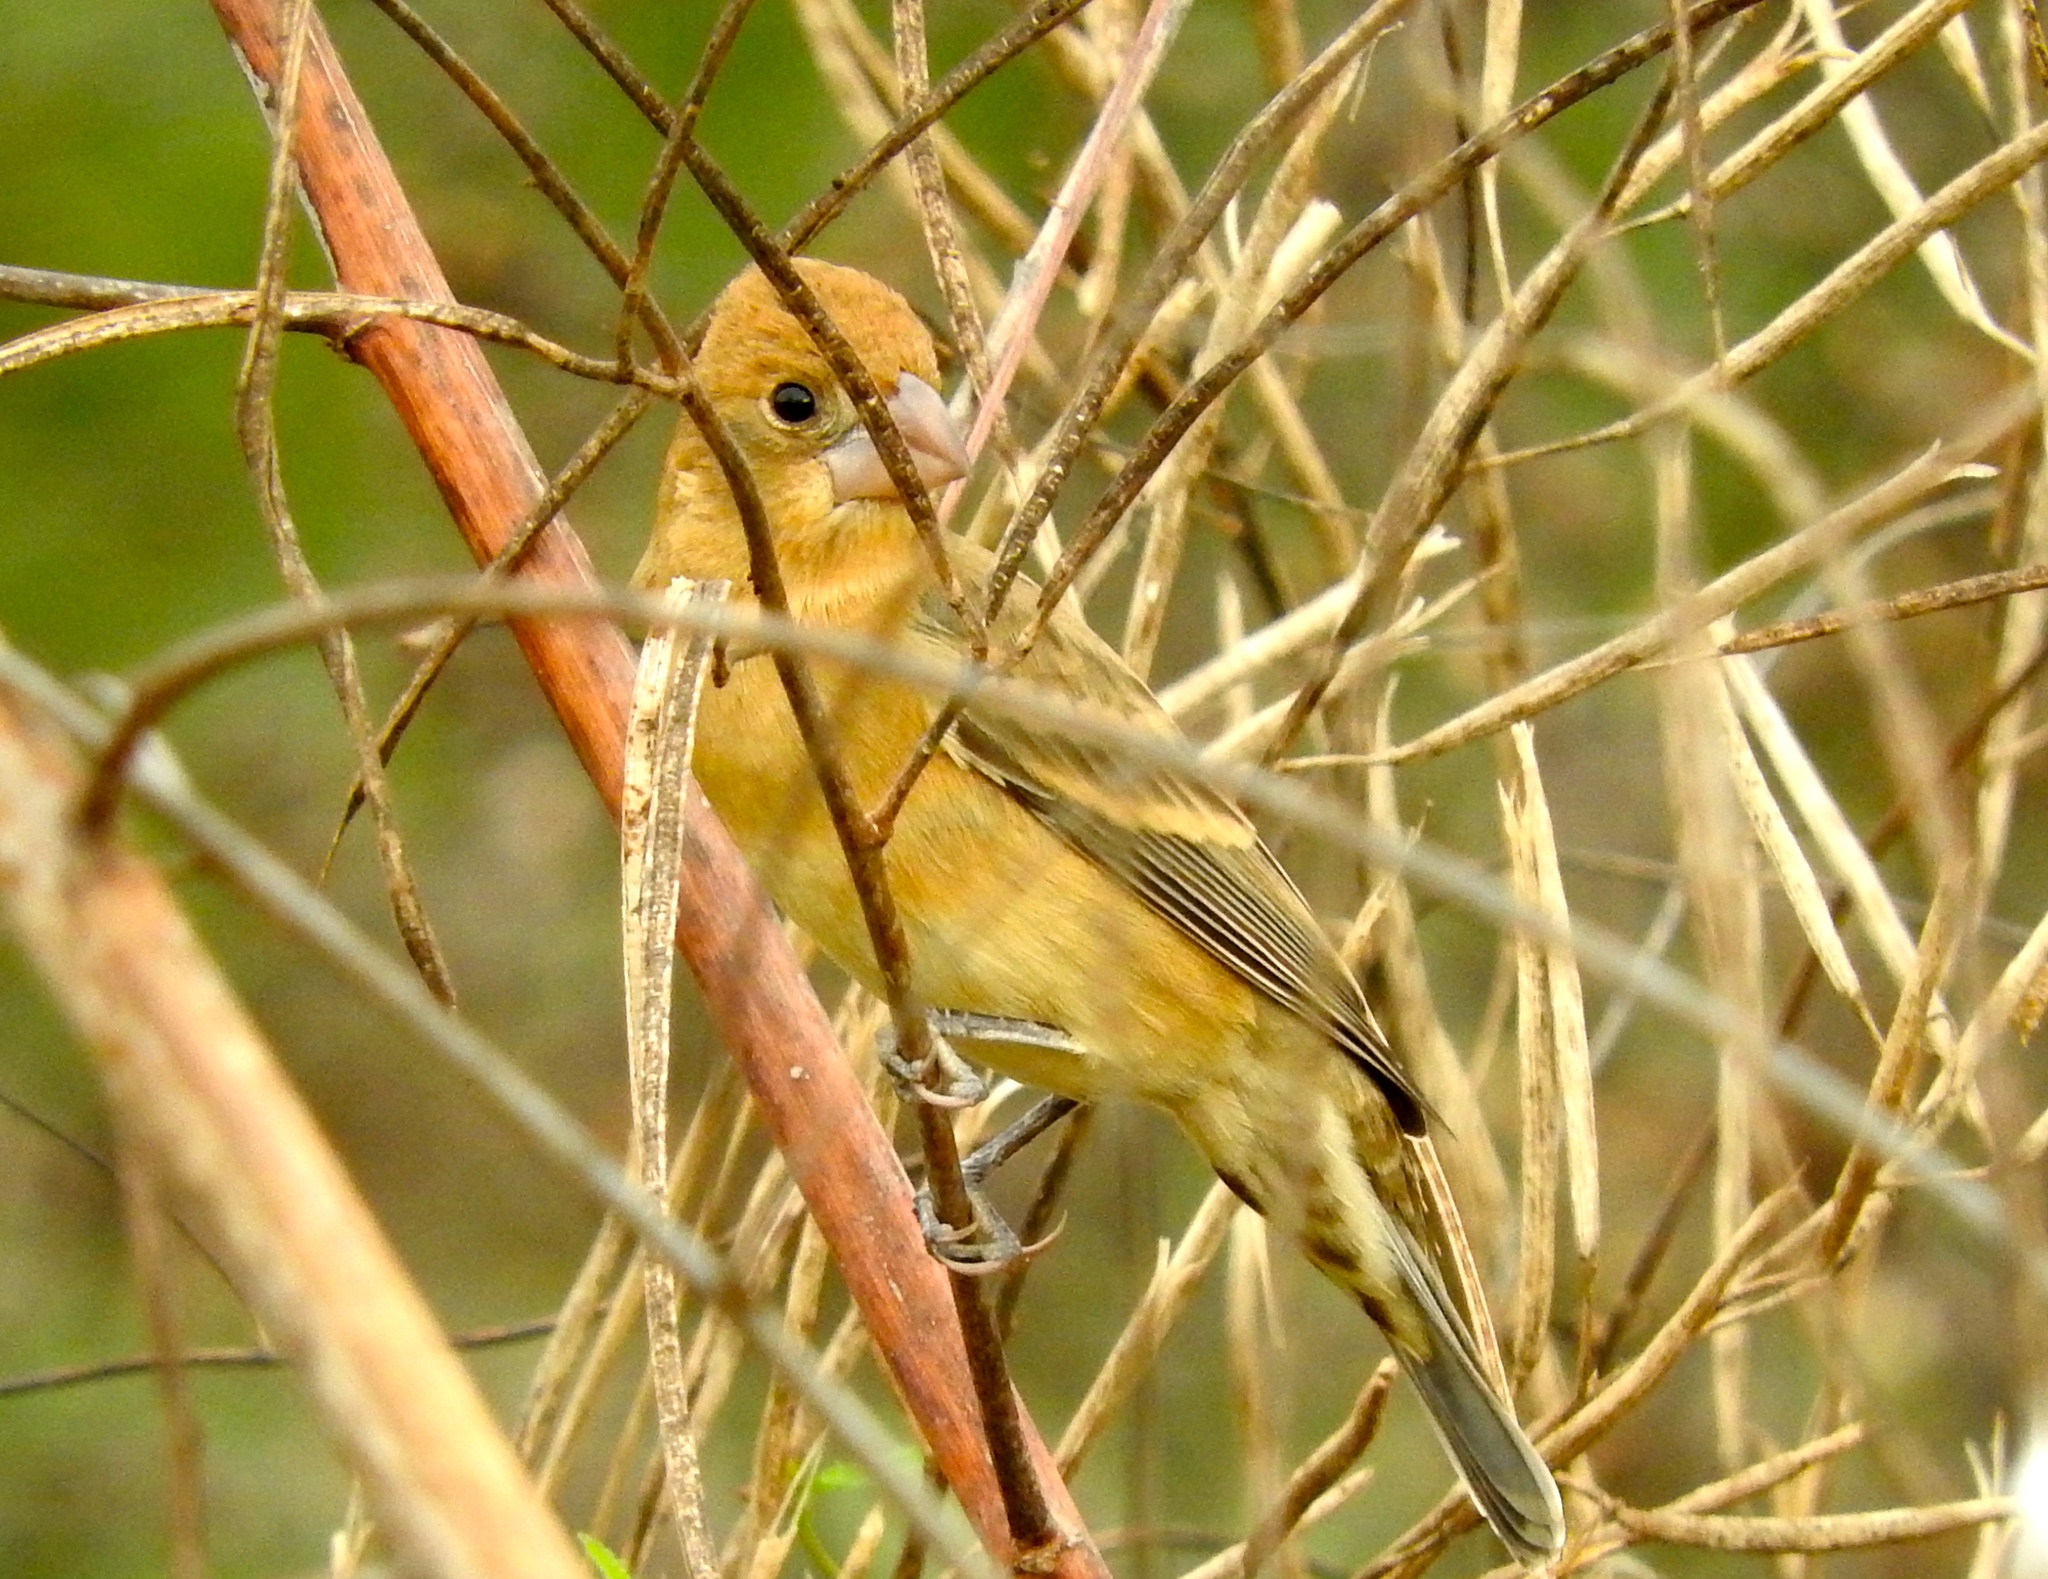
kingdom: Animalia
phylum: Chordata
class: Aves
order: Passeriformes
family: Cardinalidae
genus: Passerina
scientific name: Passerina caerulea
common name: Blue grosbeak
